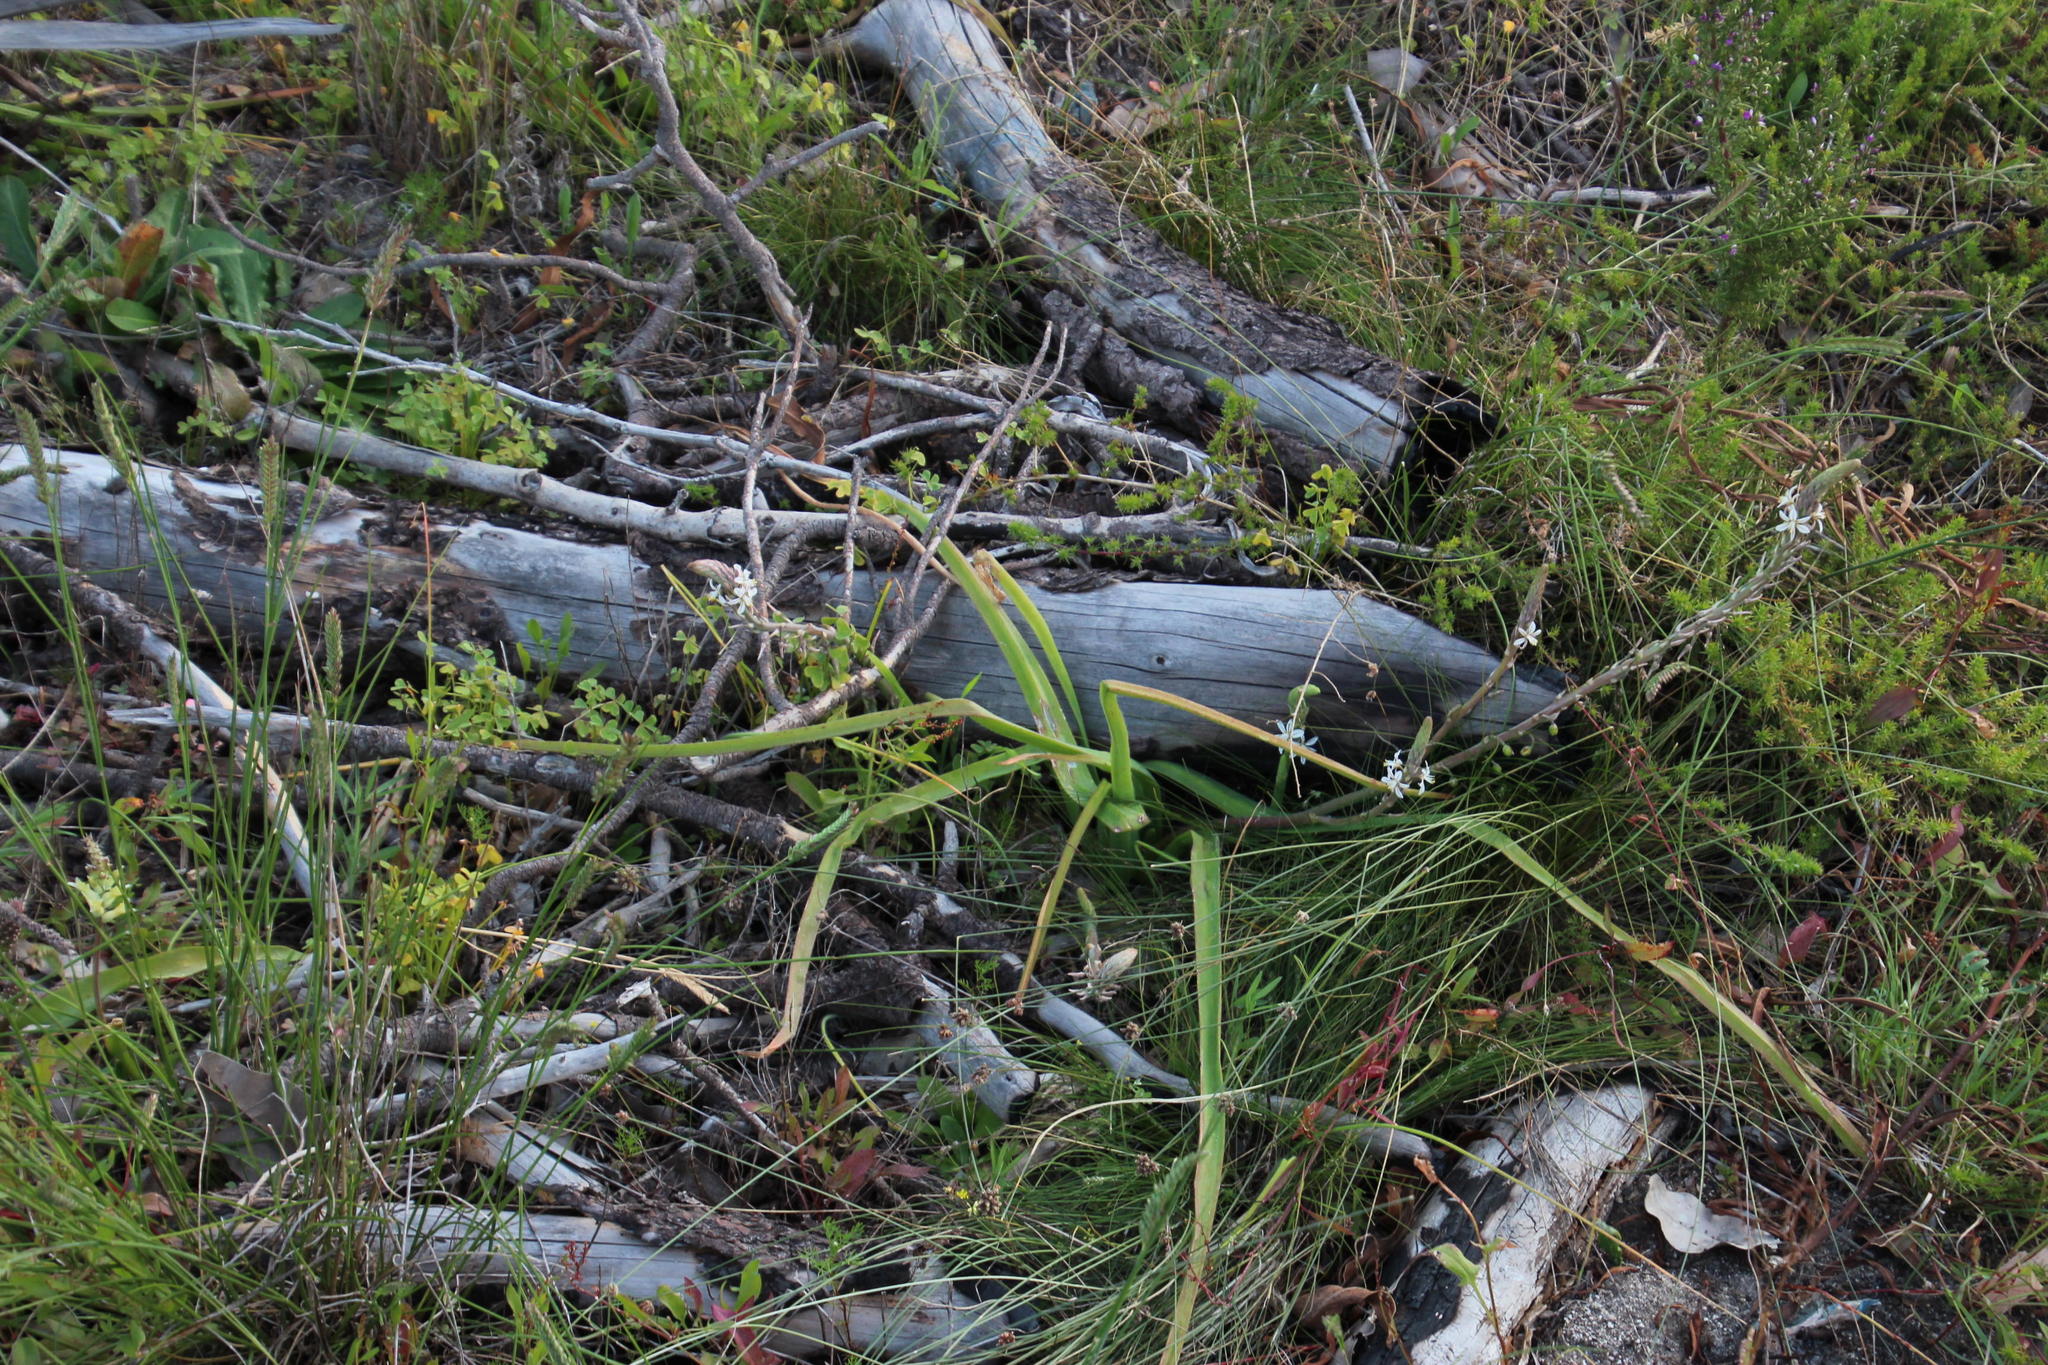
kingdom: Plantae
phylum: Tracheophyta
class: Liliopsida
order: Asparagales
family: Asphodelaceae
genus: Trachyandra
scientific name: Trachyandra ciliata
